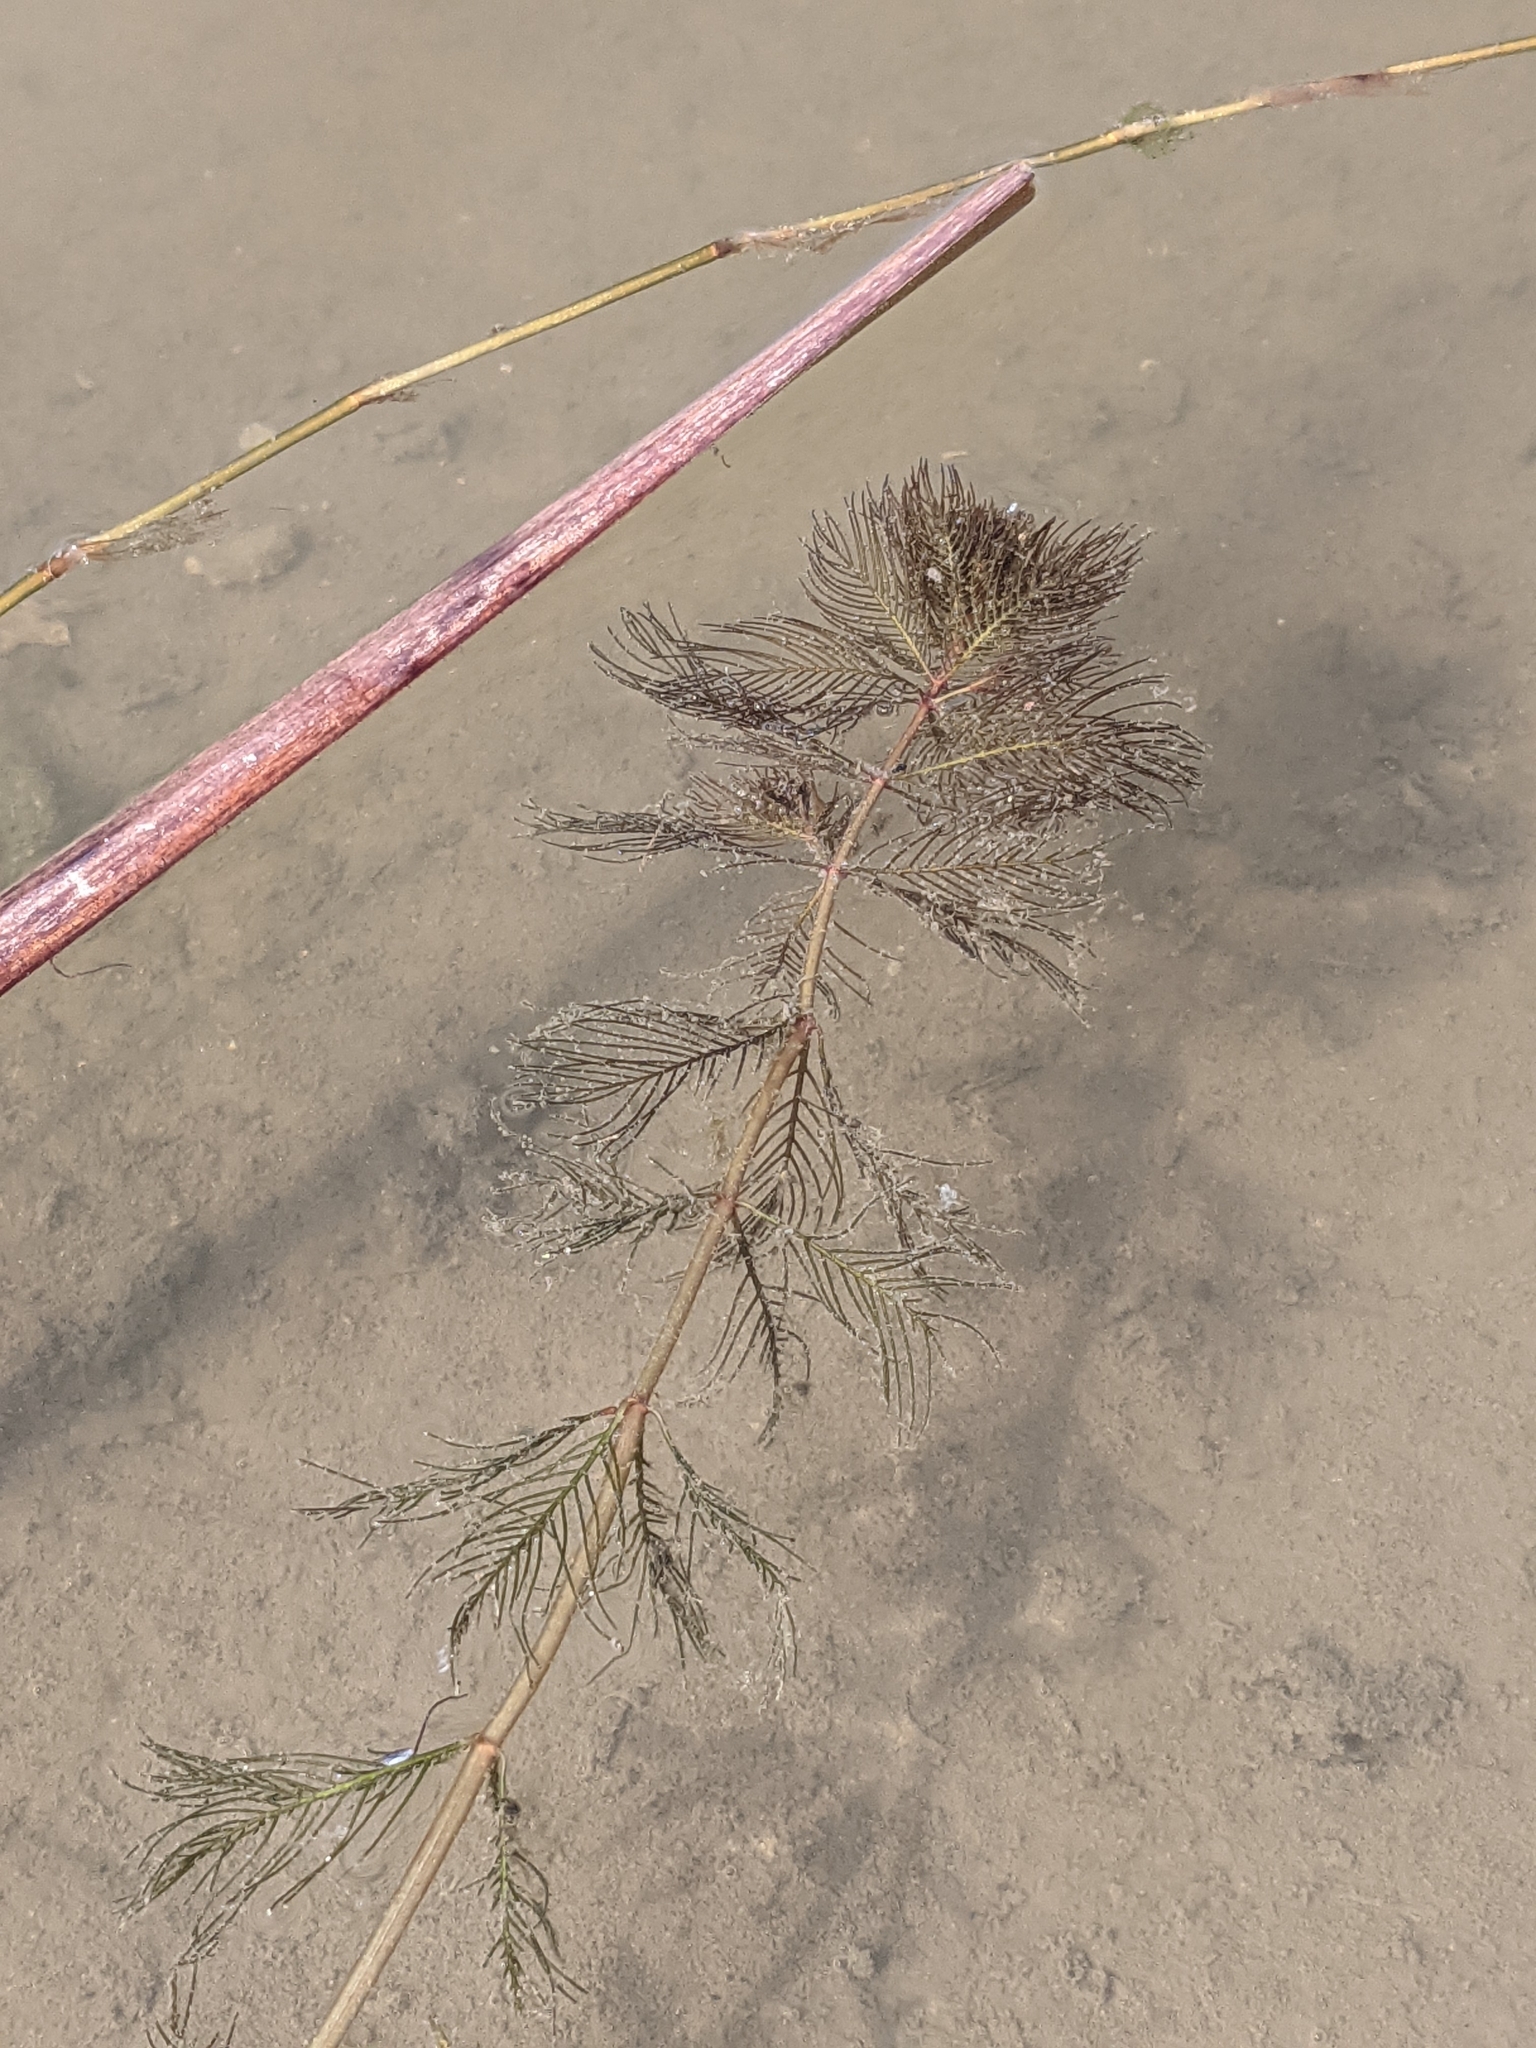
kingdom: Plantae
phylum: Tracheophyta
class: Magnoliopsida
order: Saxifragales
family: Haloragaceae
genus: Myriophyllum
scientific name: Myriophyllum spicatum
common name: Spiked water-milfoil
